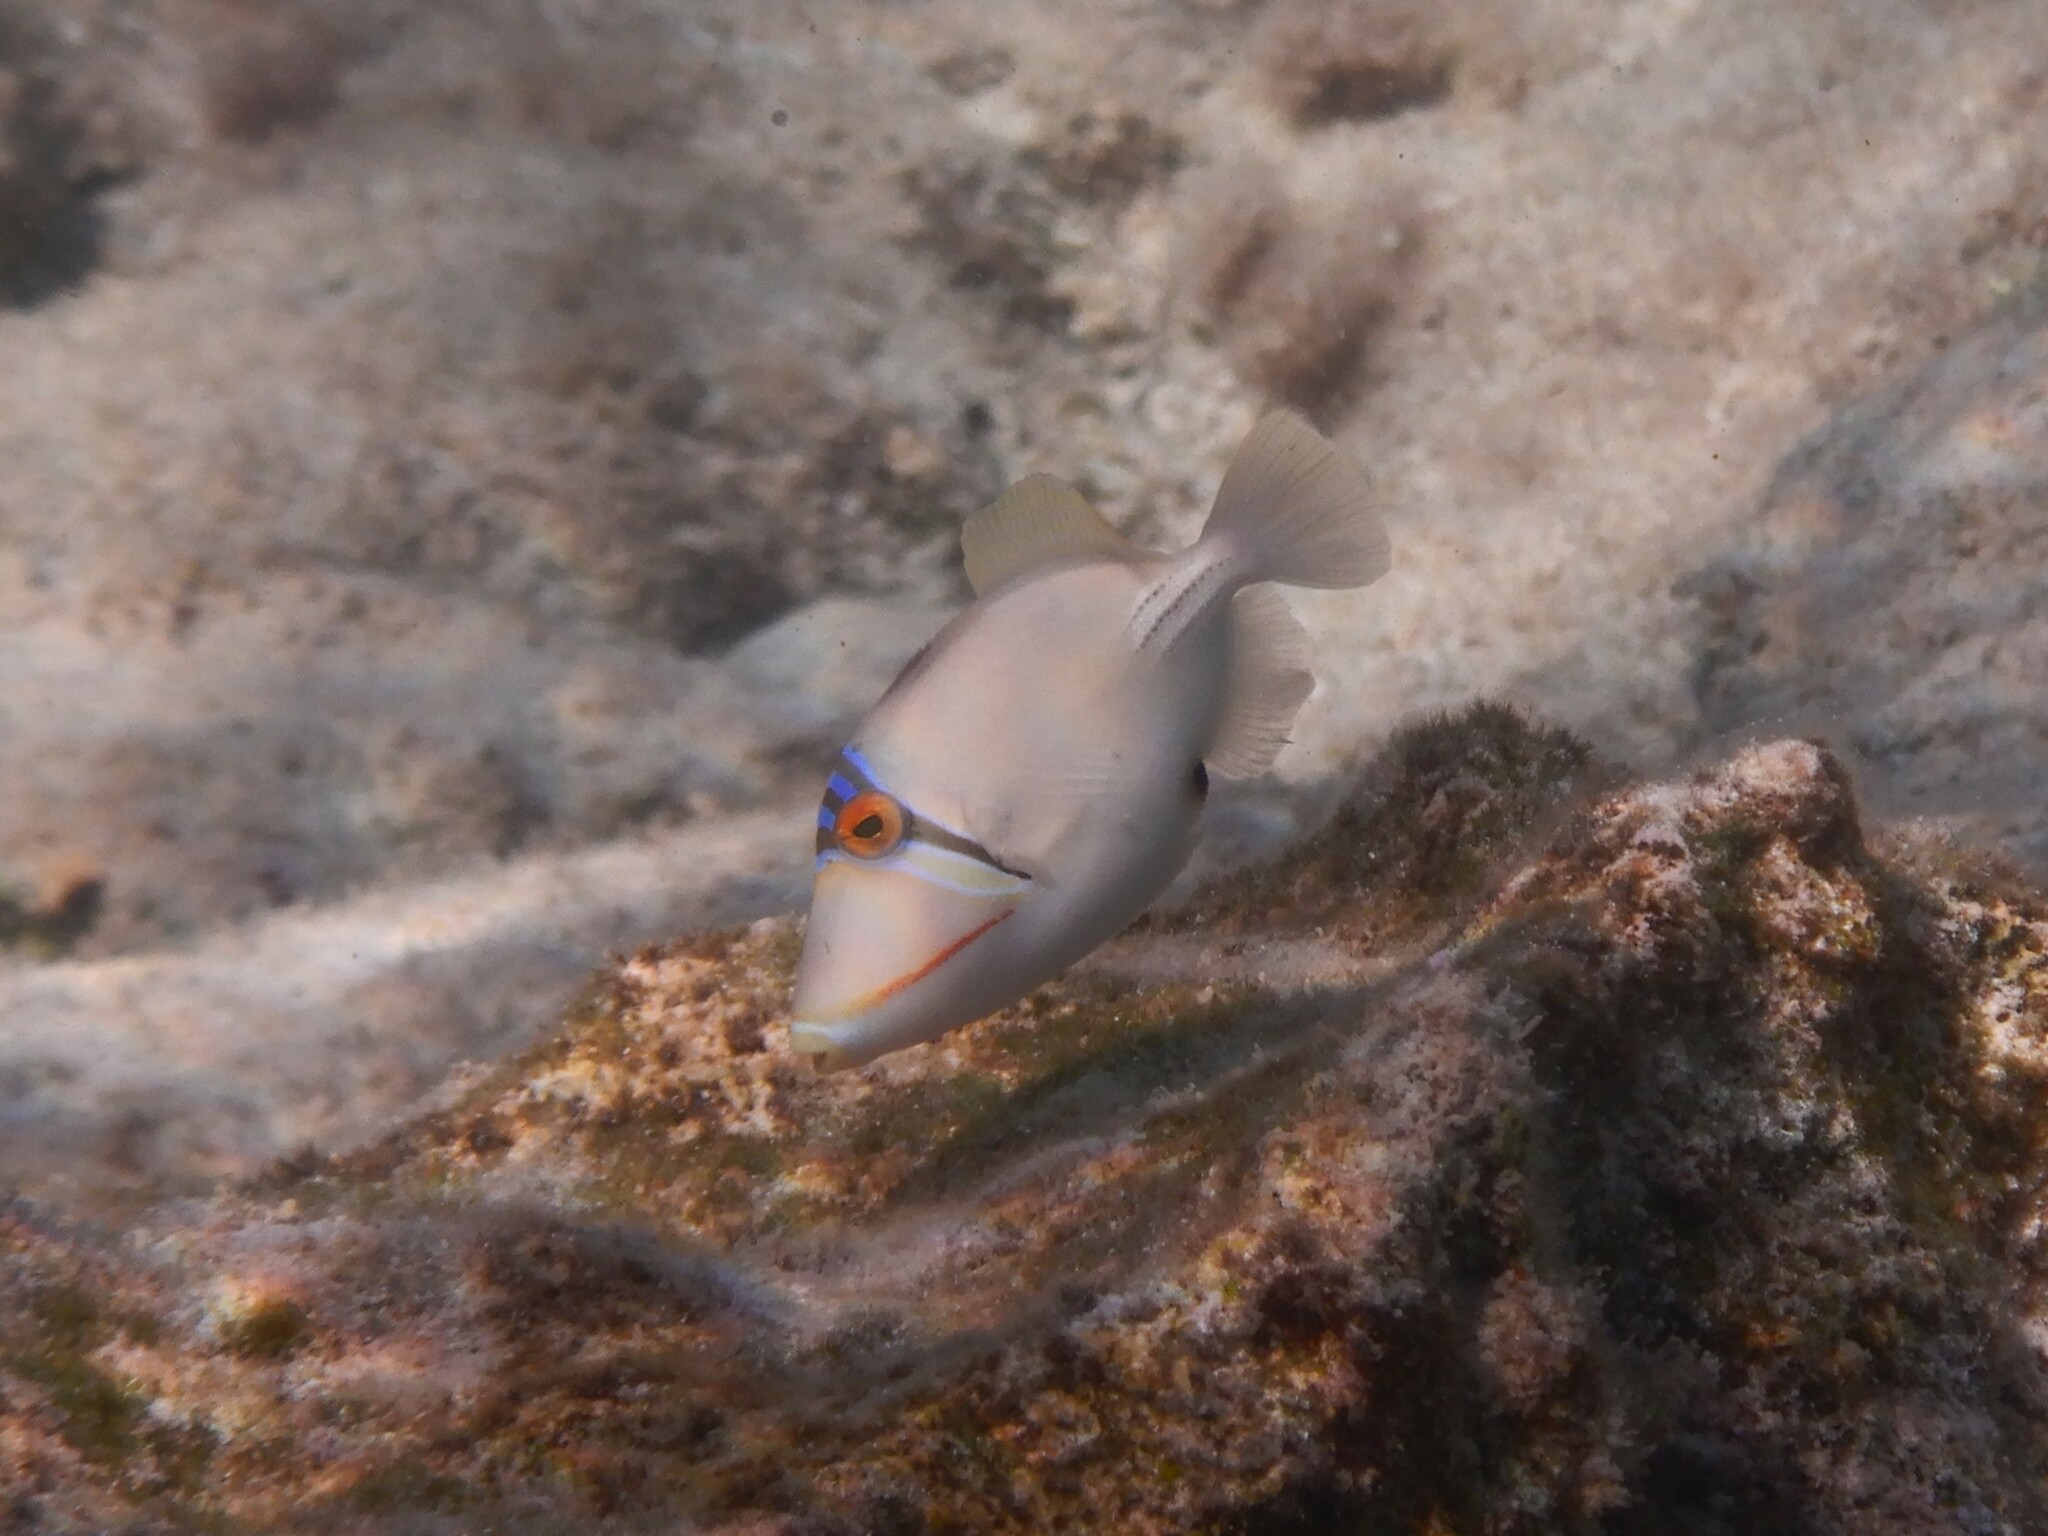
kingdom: Animalia
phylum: Chordata
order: Tetraodontiformes
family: Balistidae
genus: Rhinecanthus
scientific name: Rhinecanthus assasi
